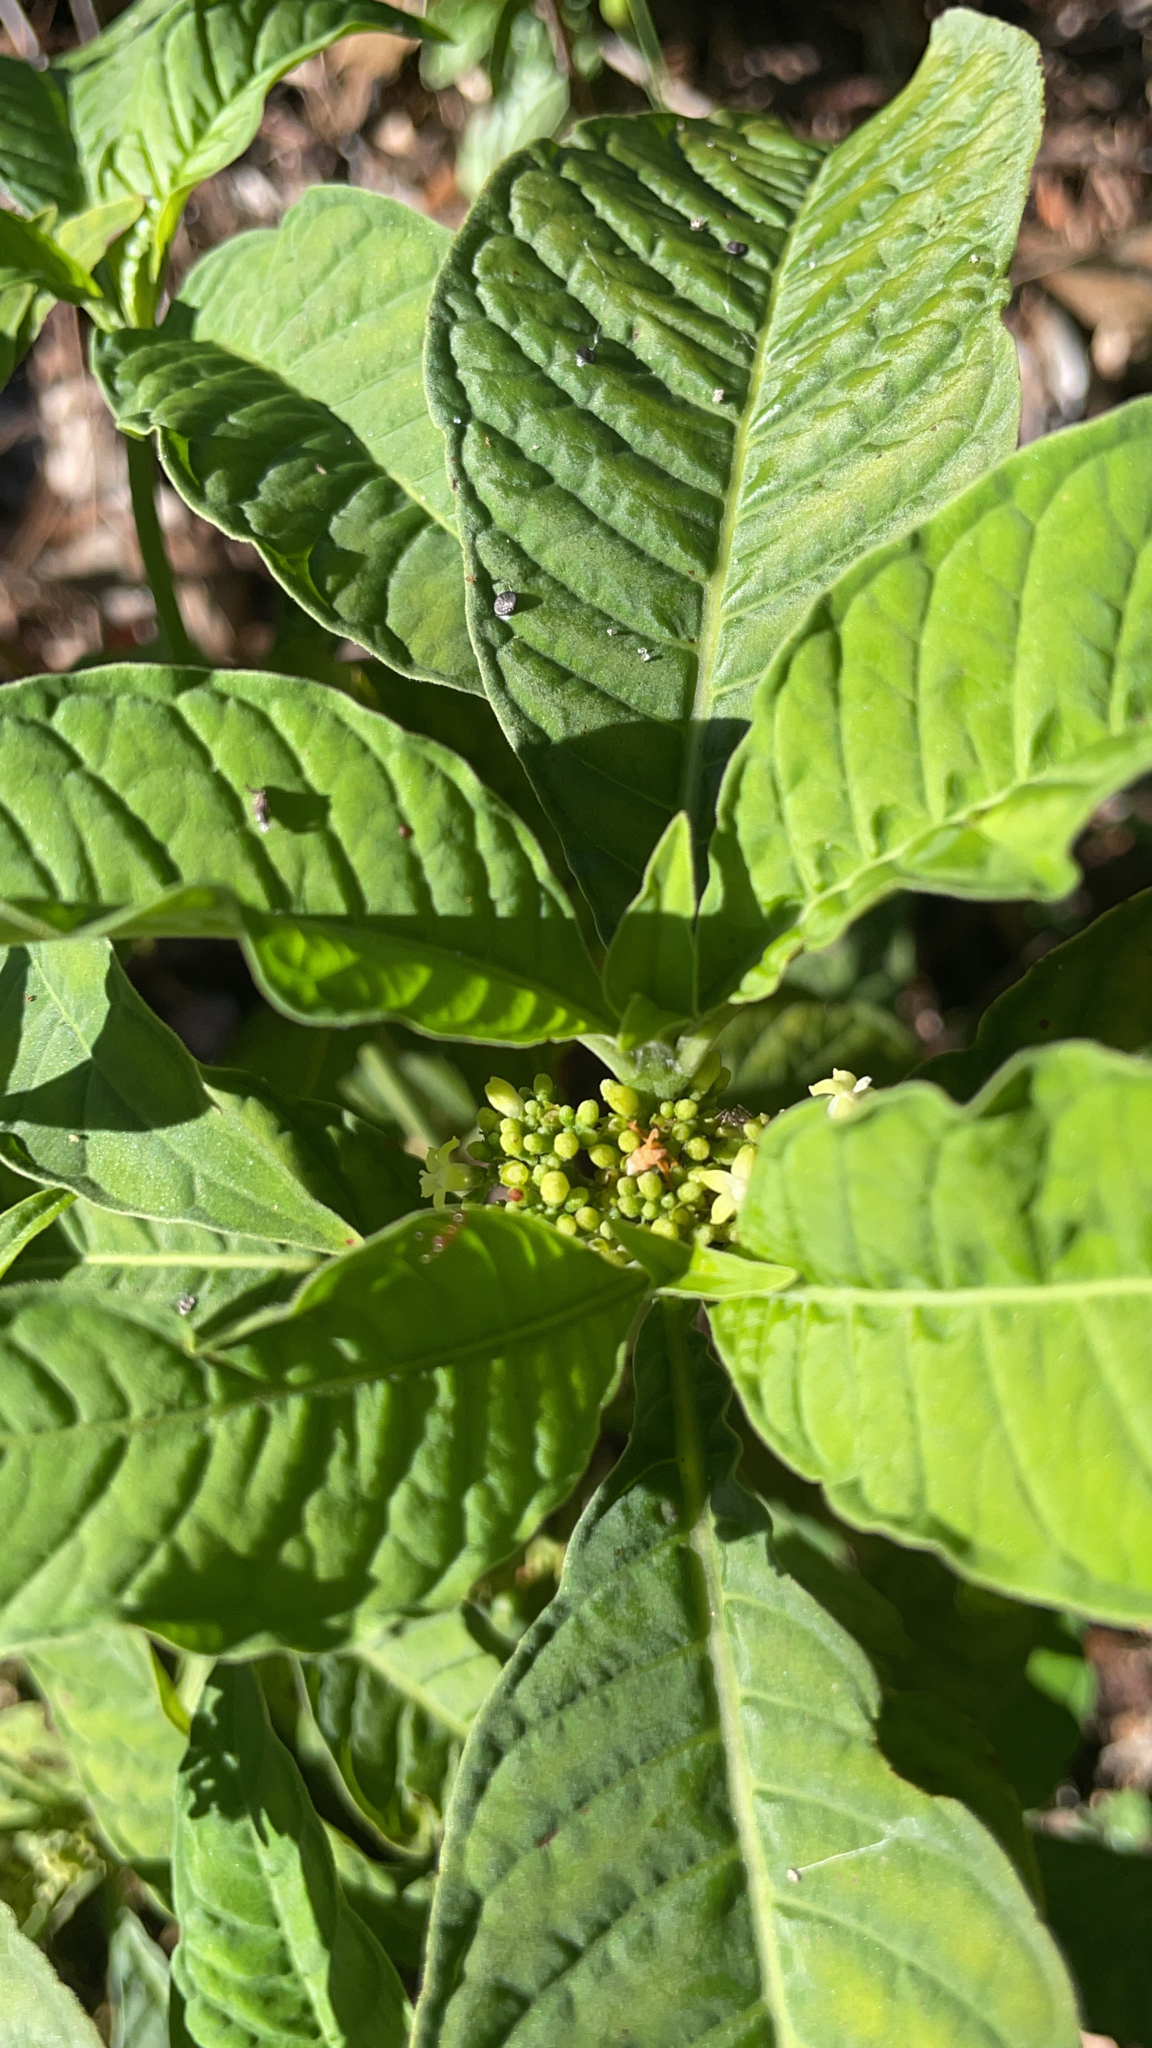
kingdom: Plantae
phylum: Tracheophyta
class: Magnoliopsida
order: Gentianales
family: Rubiaceae
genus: Psychotria
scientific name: Psychotria tenuifolia
